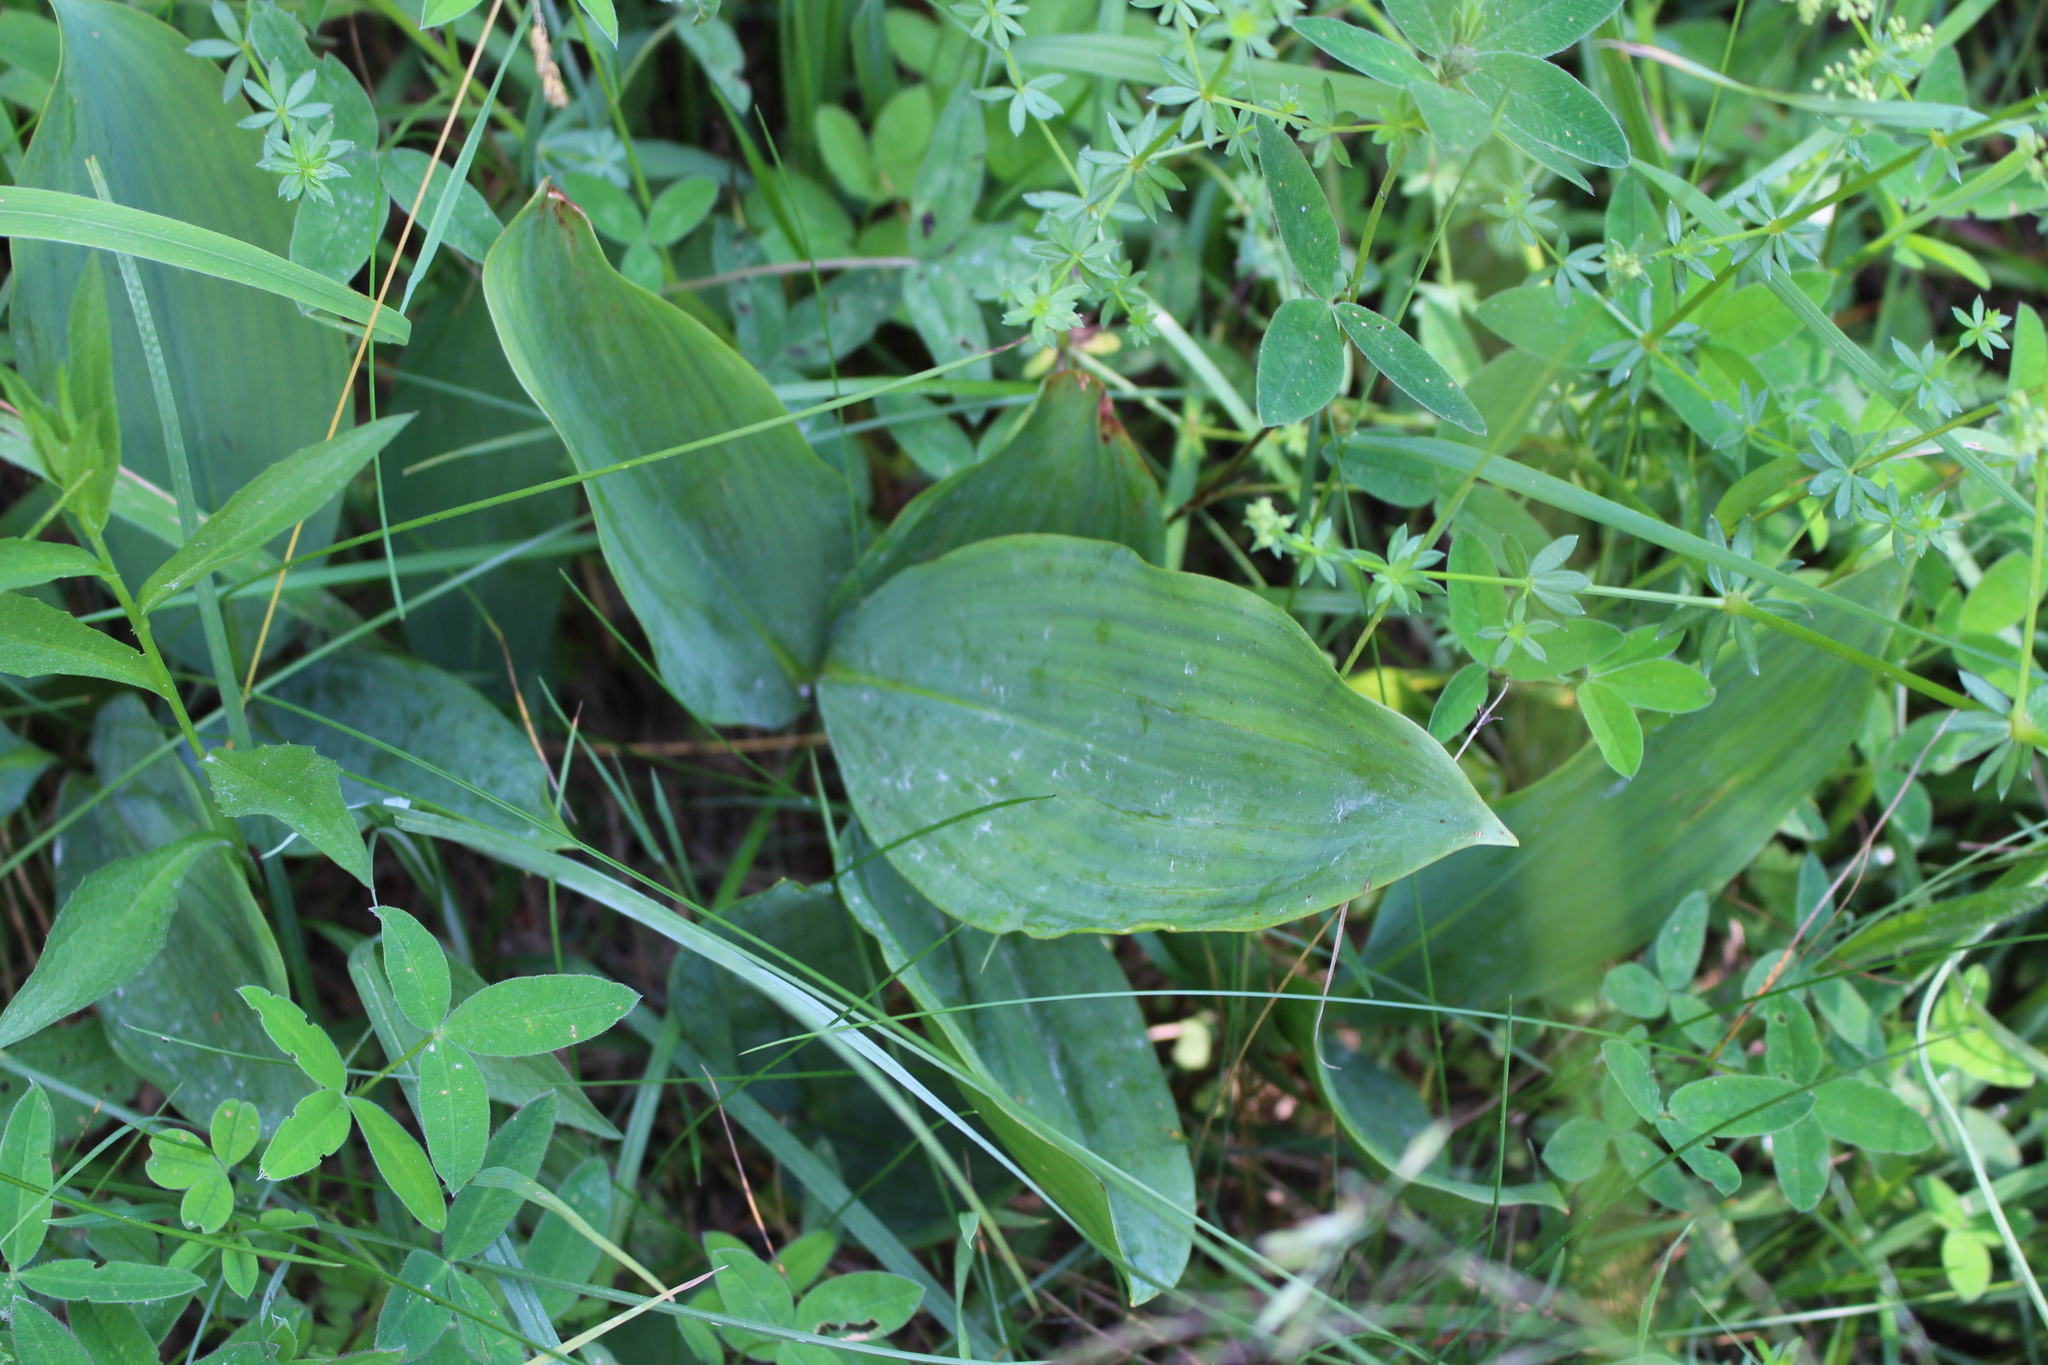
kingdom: Plantae
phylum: Tracheophyta
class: Liliopsida
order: Asparagales
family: Asparagaceae
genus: Convallaria
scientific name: Convallaria majalis
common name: Lily-of-the-valley
